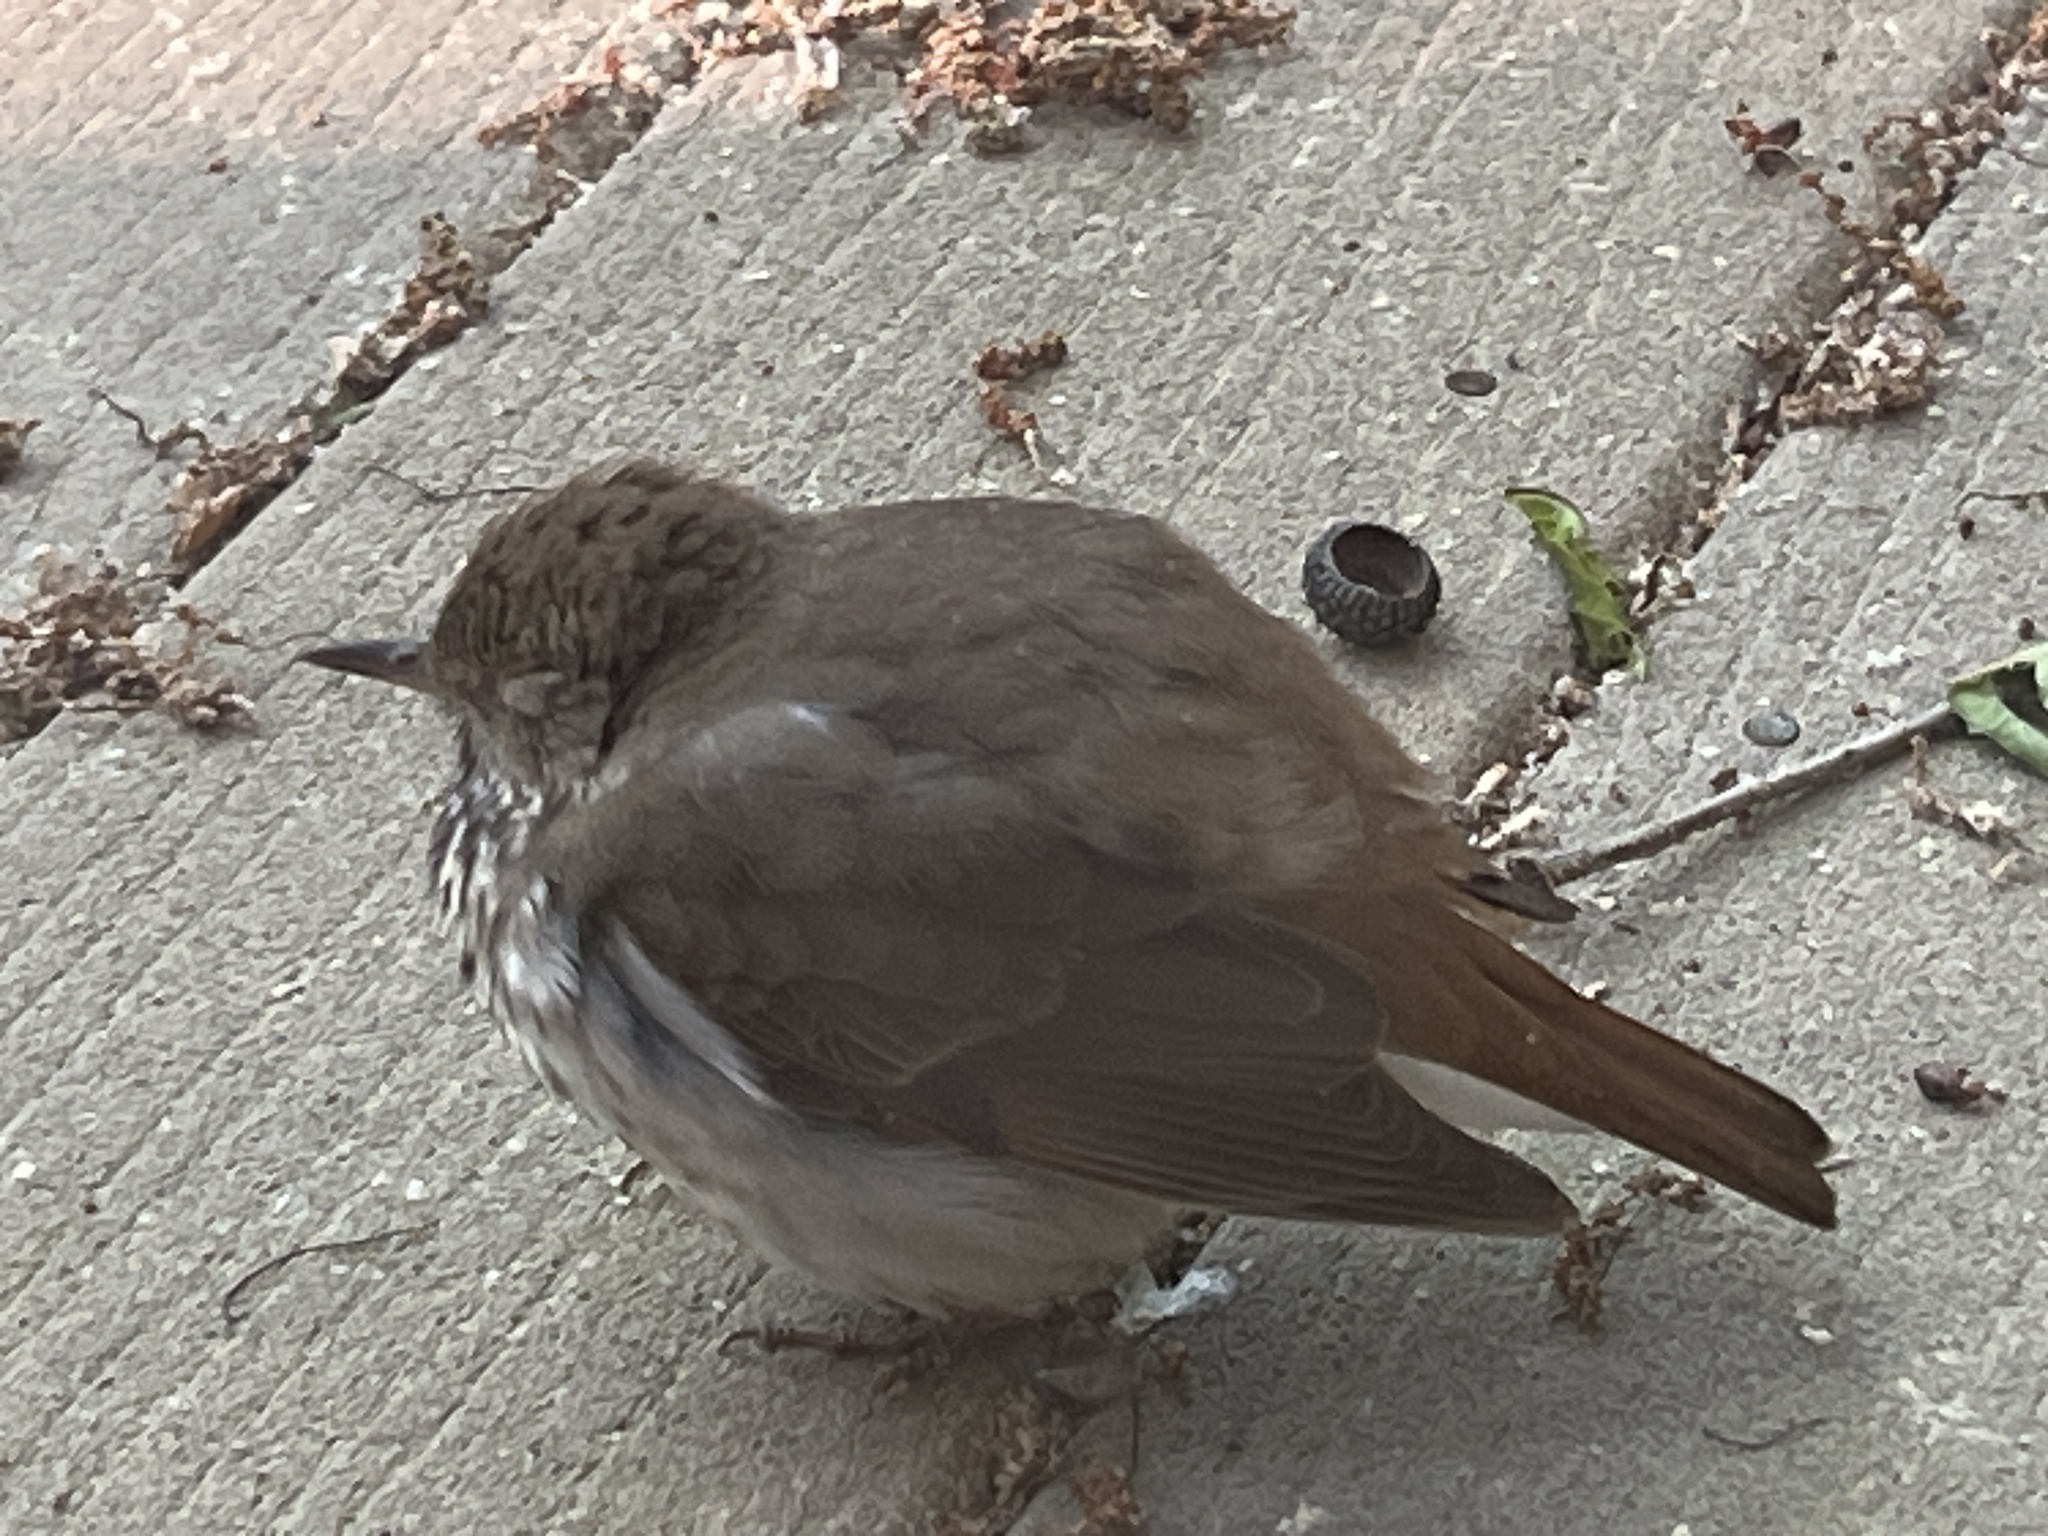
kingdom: Animalia
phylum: Chordata
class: Aves
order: Passeriformes
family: Turdidae
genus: Catharus
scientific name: Catharus guttatus
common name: Hermit thrush
